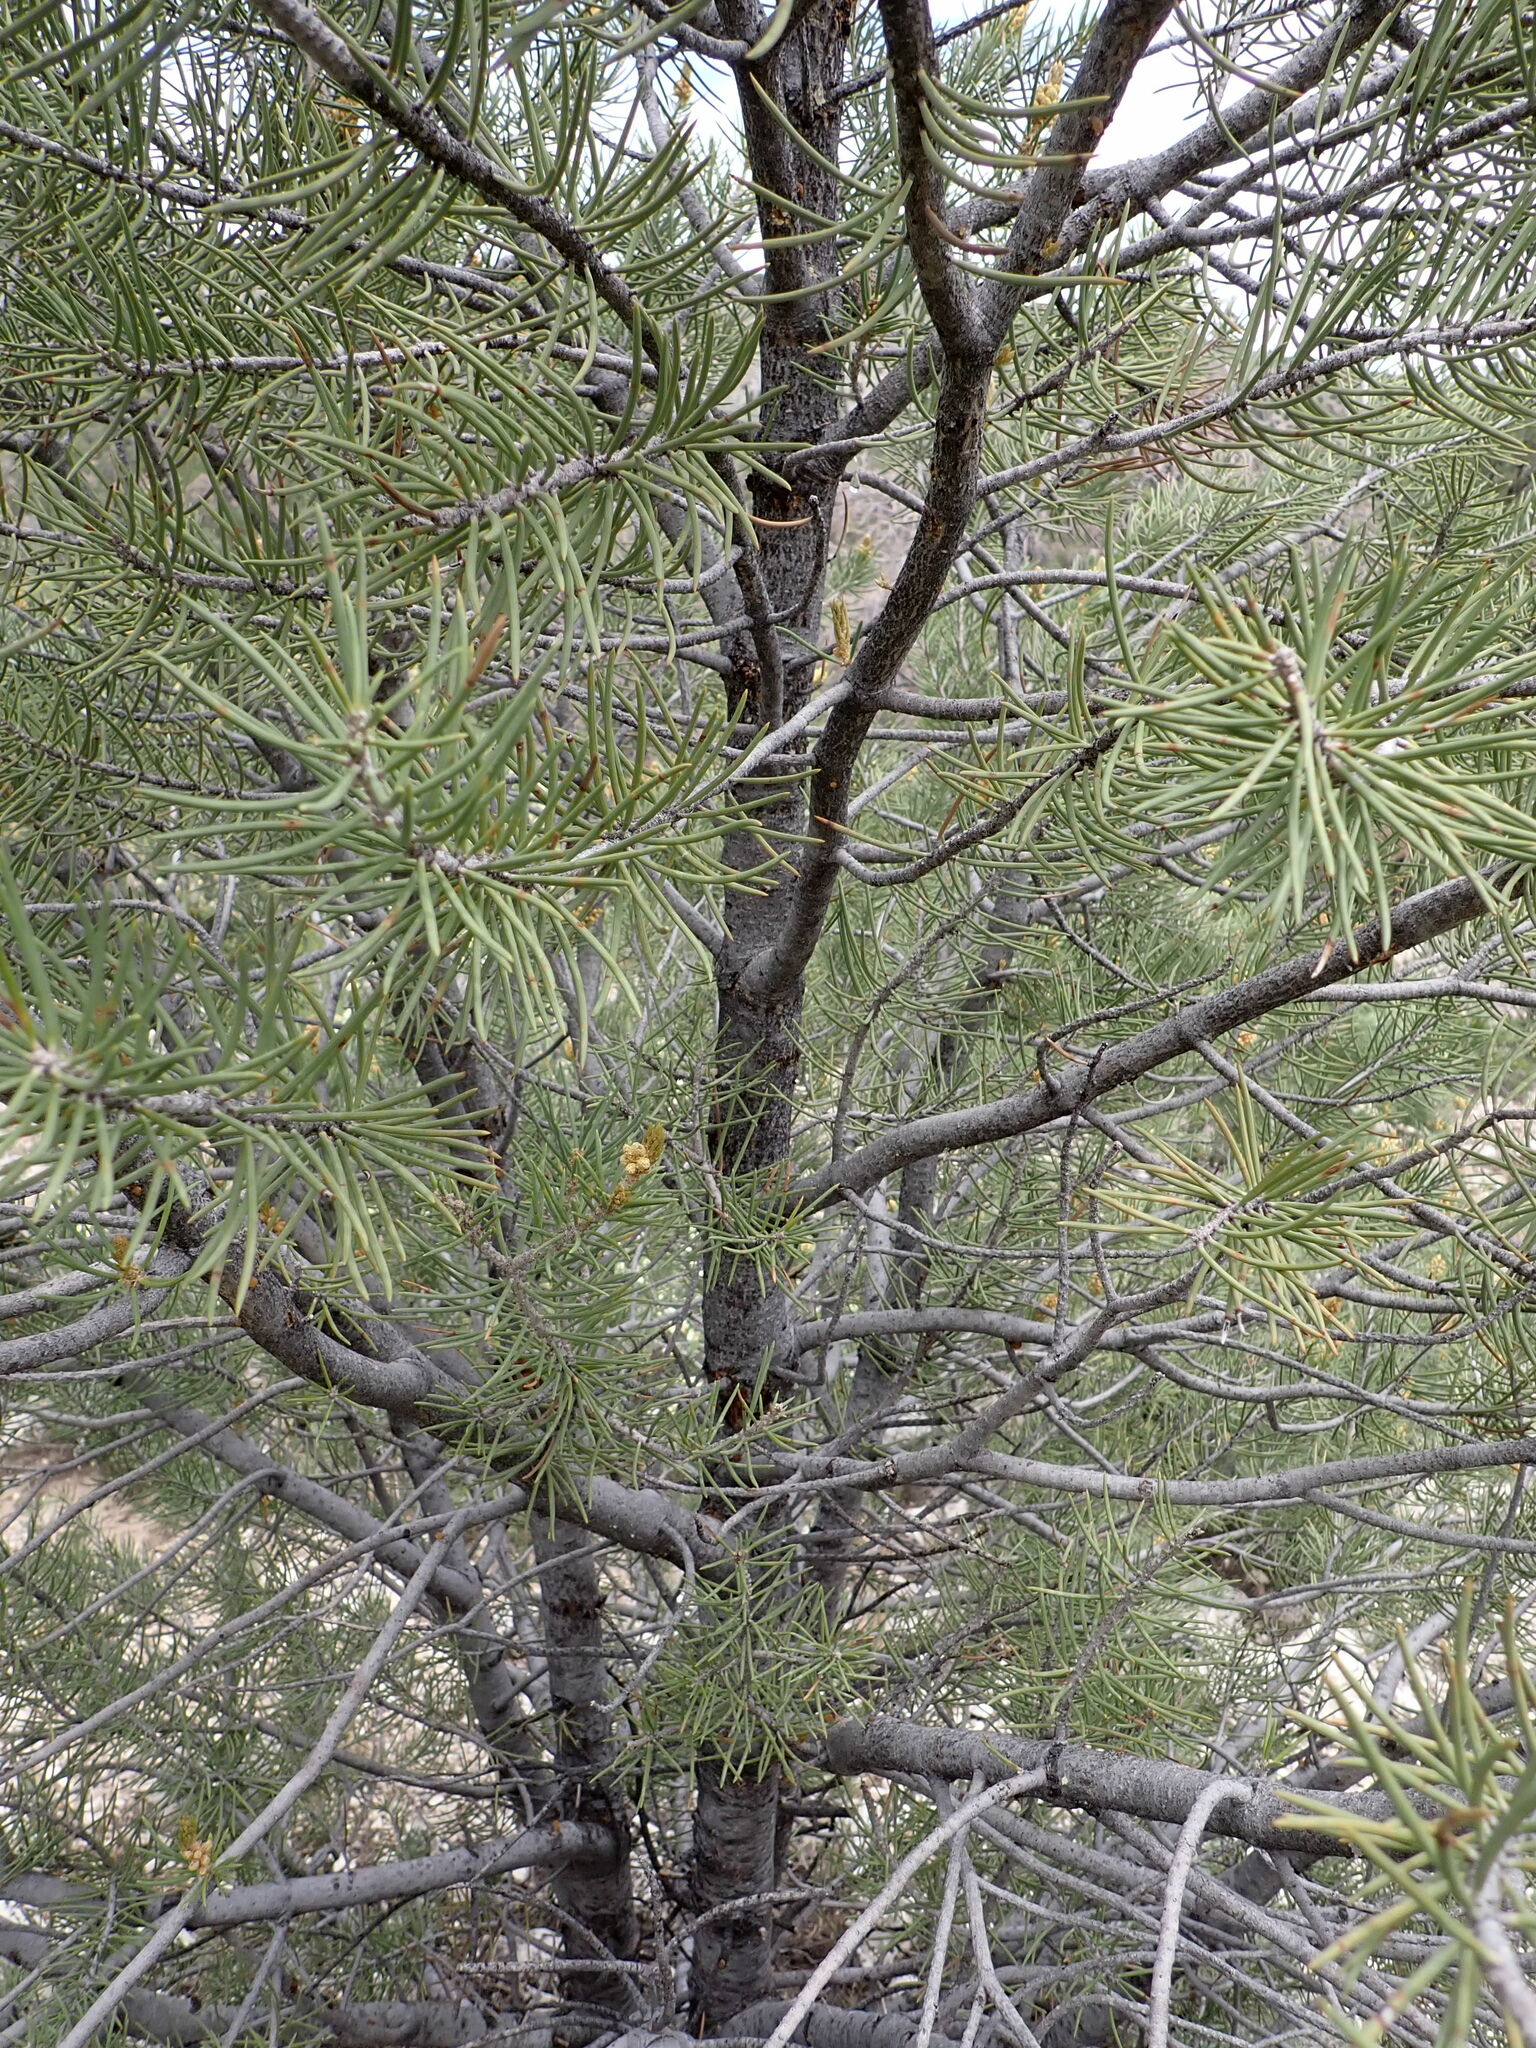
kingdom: Plantae
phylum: Tracheophyta
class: Pinopsida
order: Pinales
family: Pinaceae
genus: Pinus
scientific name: Pinus monophylla
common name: One-leaved nut pine
